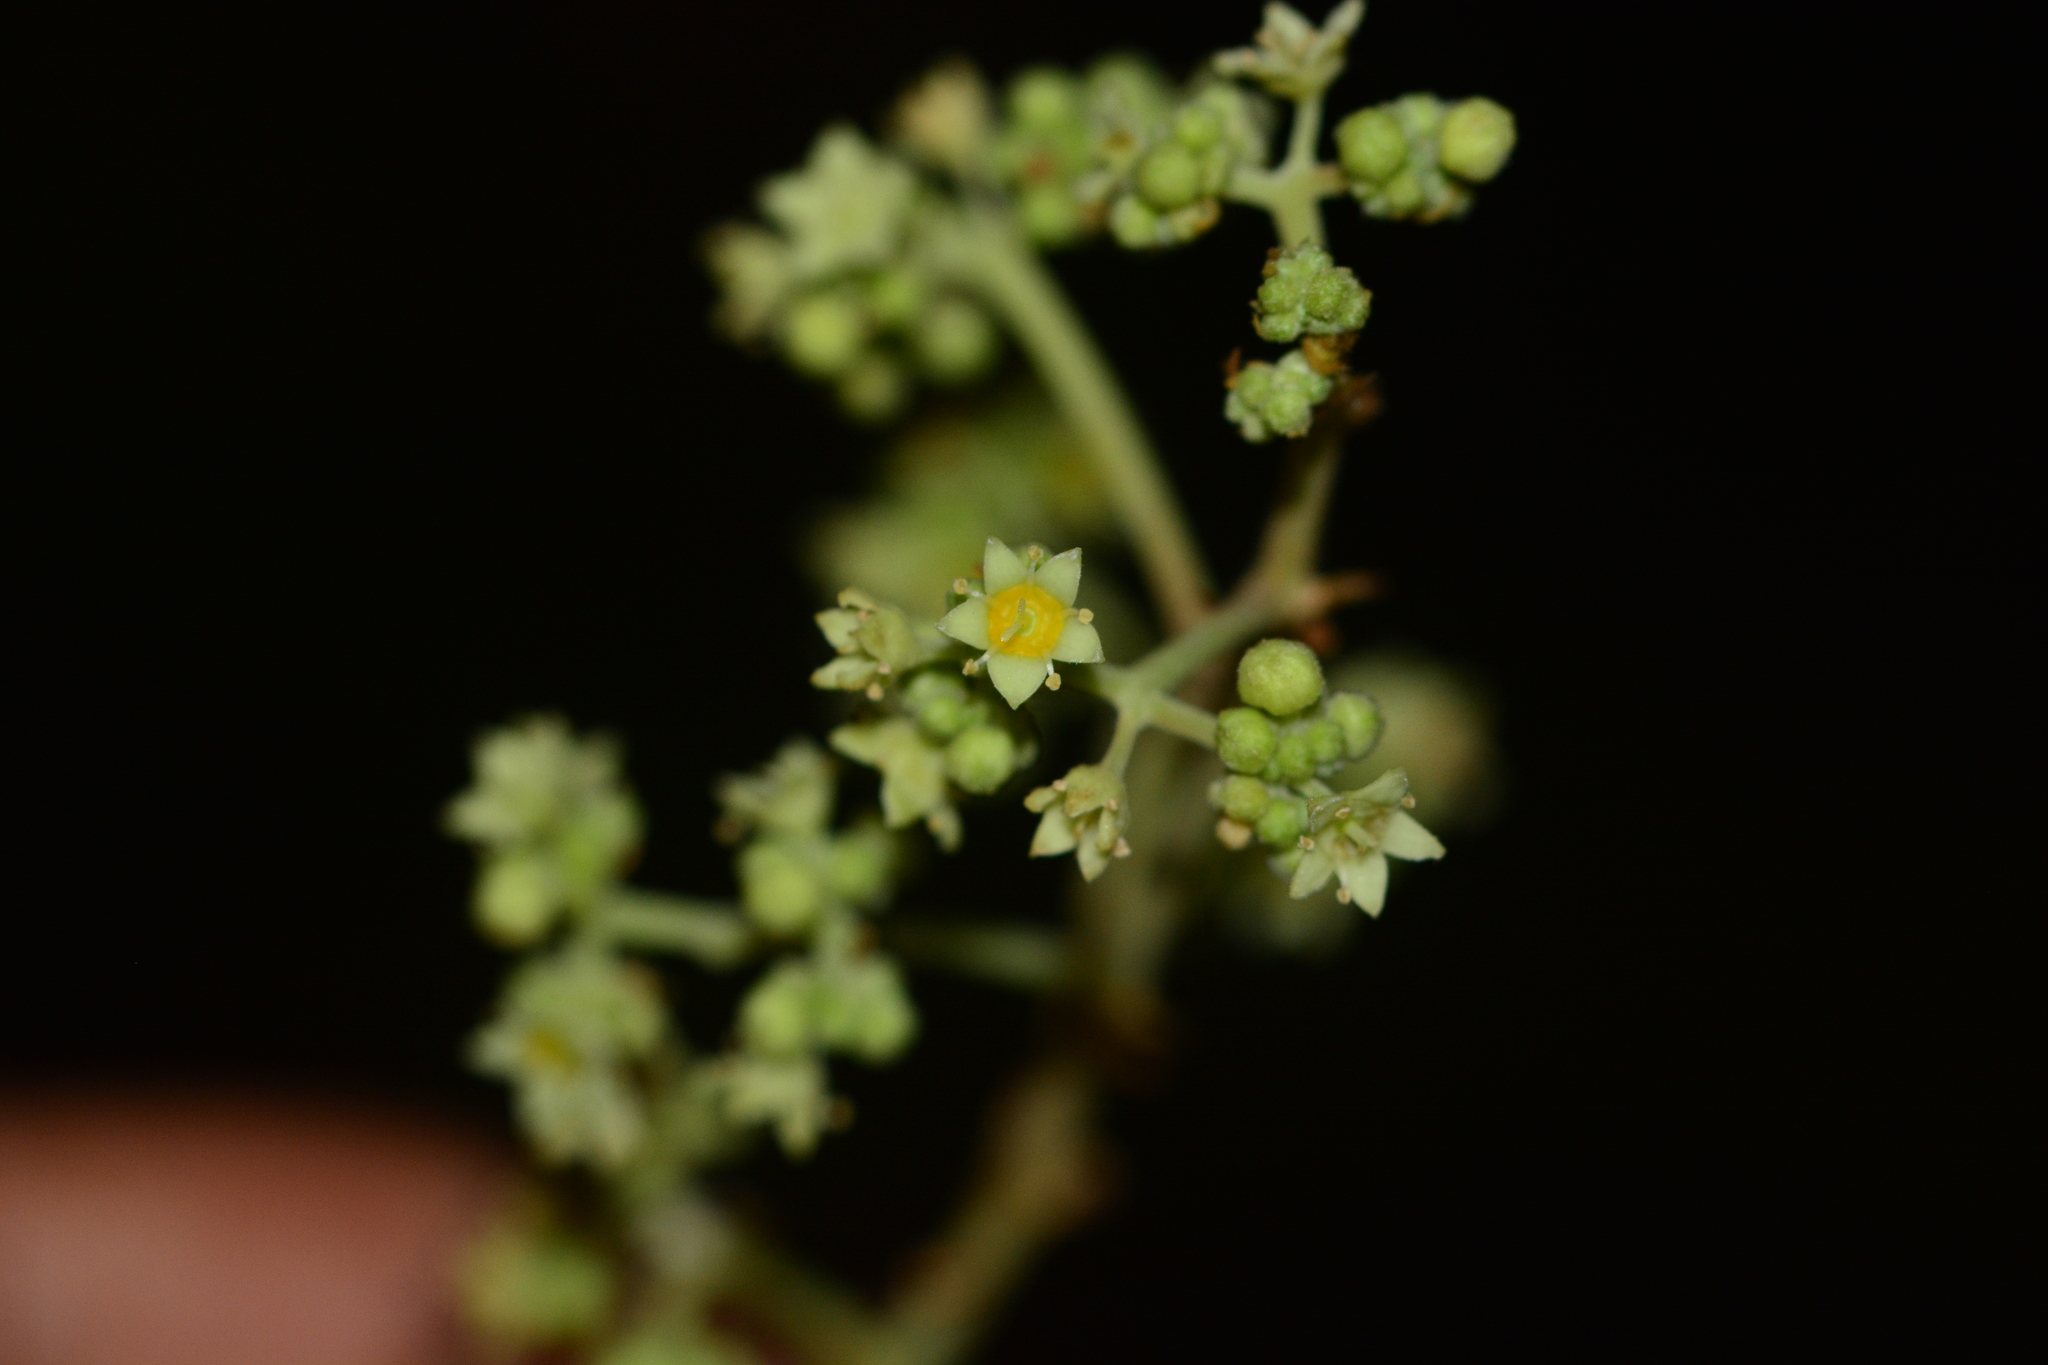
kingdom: Plantae
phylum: Tracheophyta
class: Magnoliopsida
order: Rosales
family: Rhamnaceae
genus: Ziziphus
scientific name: Ziziphus rugosa
